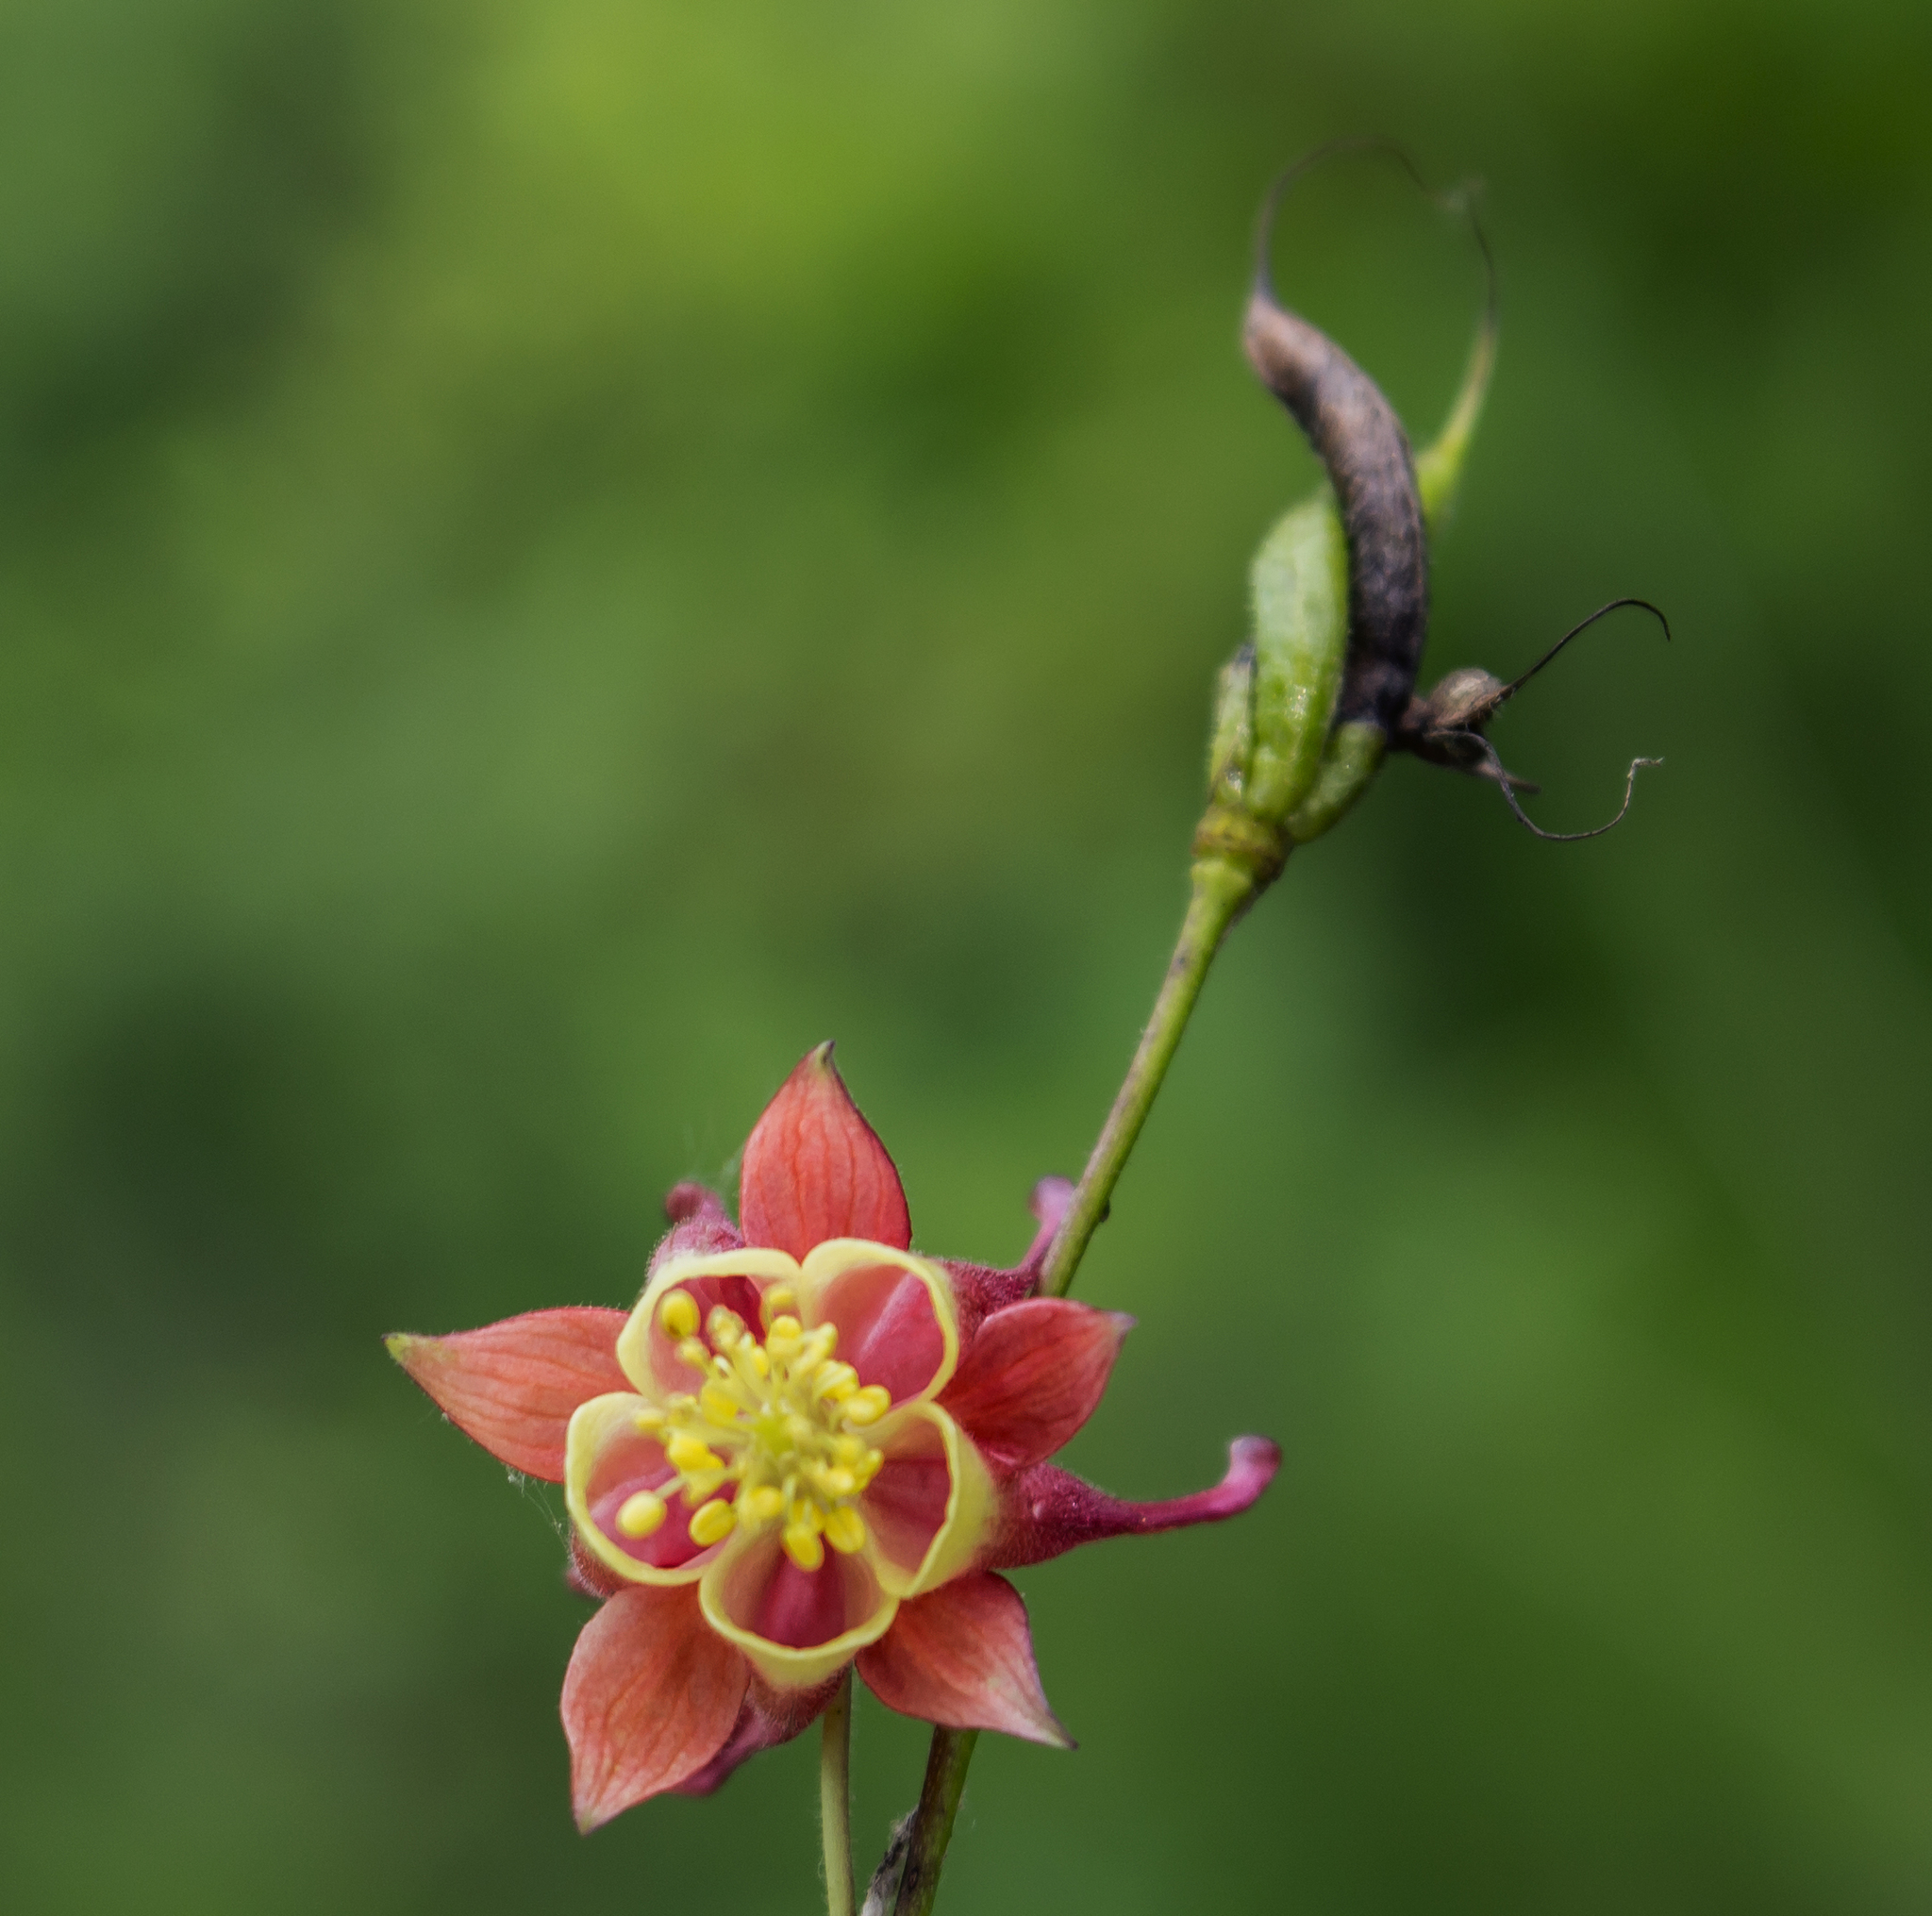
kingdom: Plantae
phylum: Tracheophyta
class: Magnoliopsida
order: Ranunculales
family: Ranunculaceae
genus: Aquilegia
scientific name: Aquilegia canadensis
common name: American columbine
